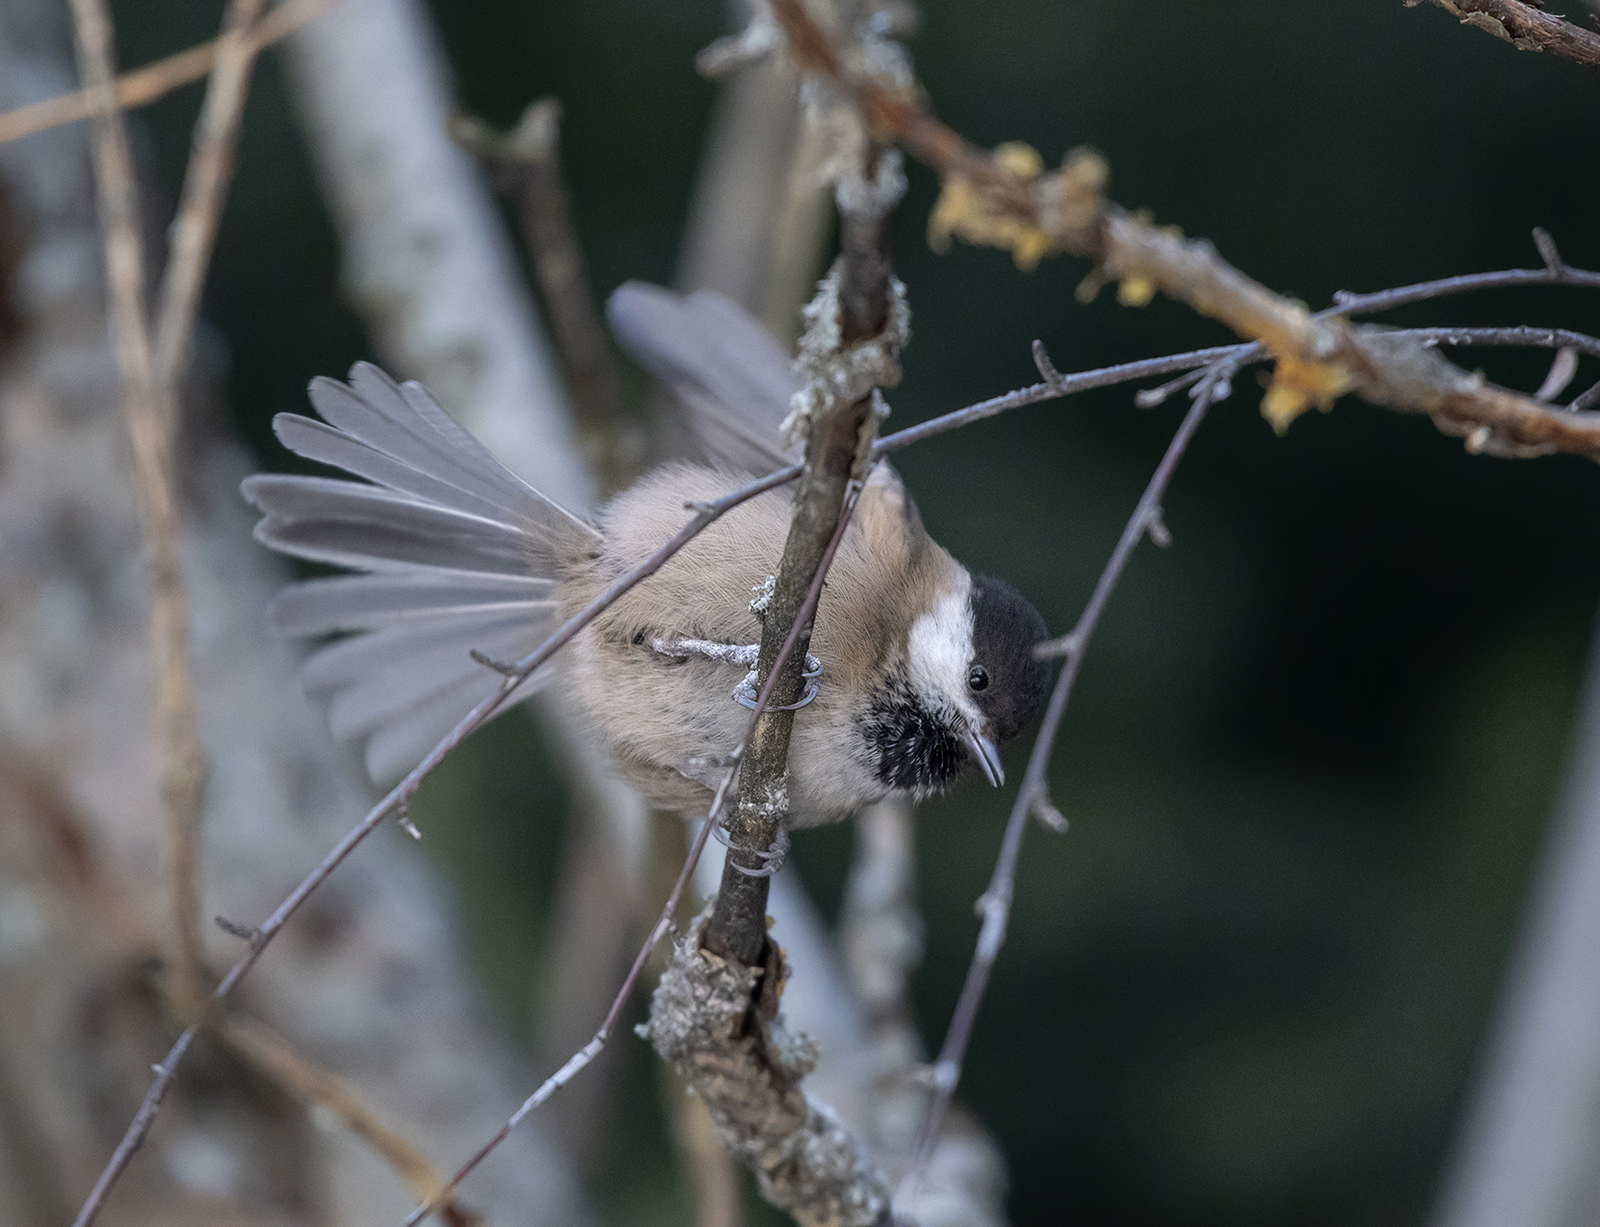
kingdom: Animalia
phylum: Chordata
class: Aves
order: Passeriformes
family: Paridae
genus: Poecile
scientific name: Poecile montanus
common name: Willow tit
